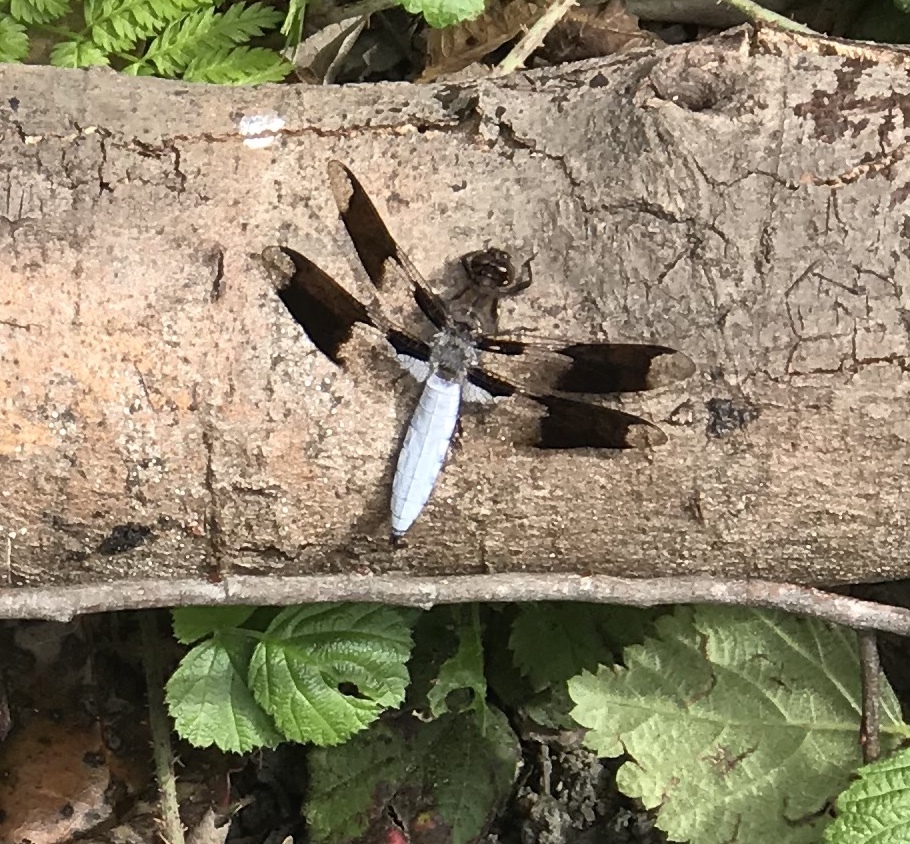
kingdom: Animalia
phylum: Arthropoda
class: Insecta
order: Odonata
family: Libellulidae
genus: Plathemis
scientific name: Plathemis lydia
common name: Common whitetail
